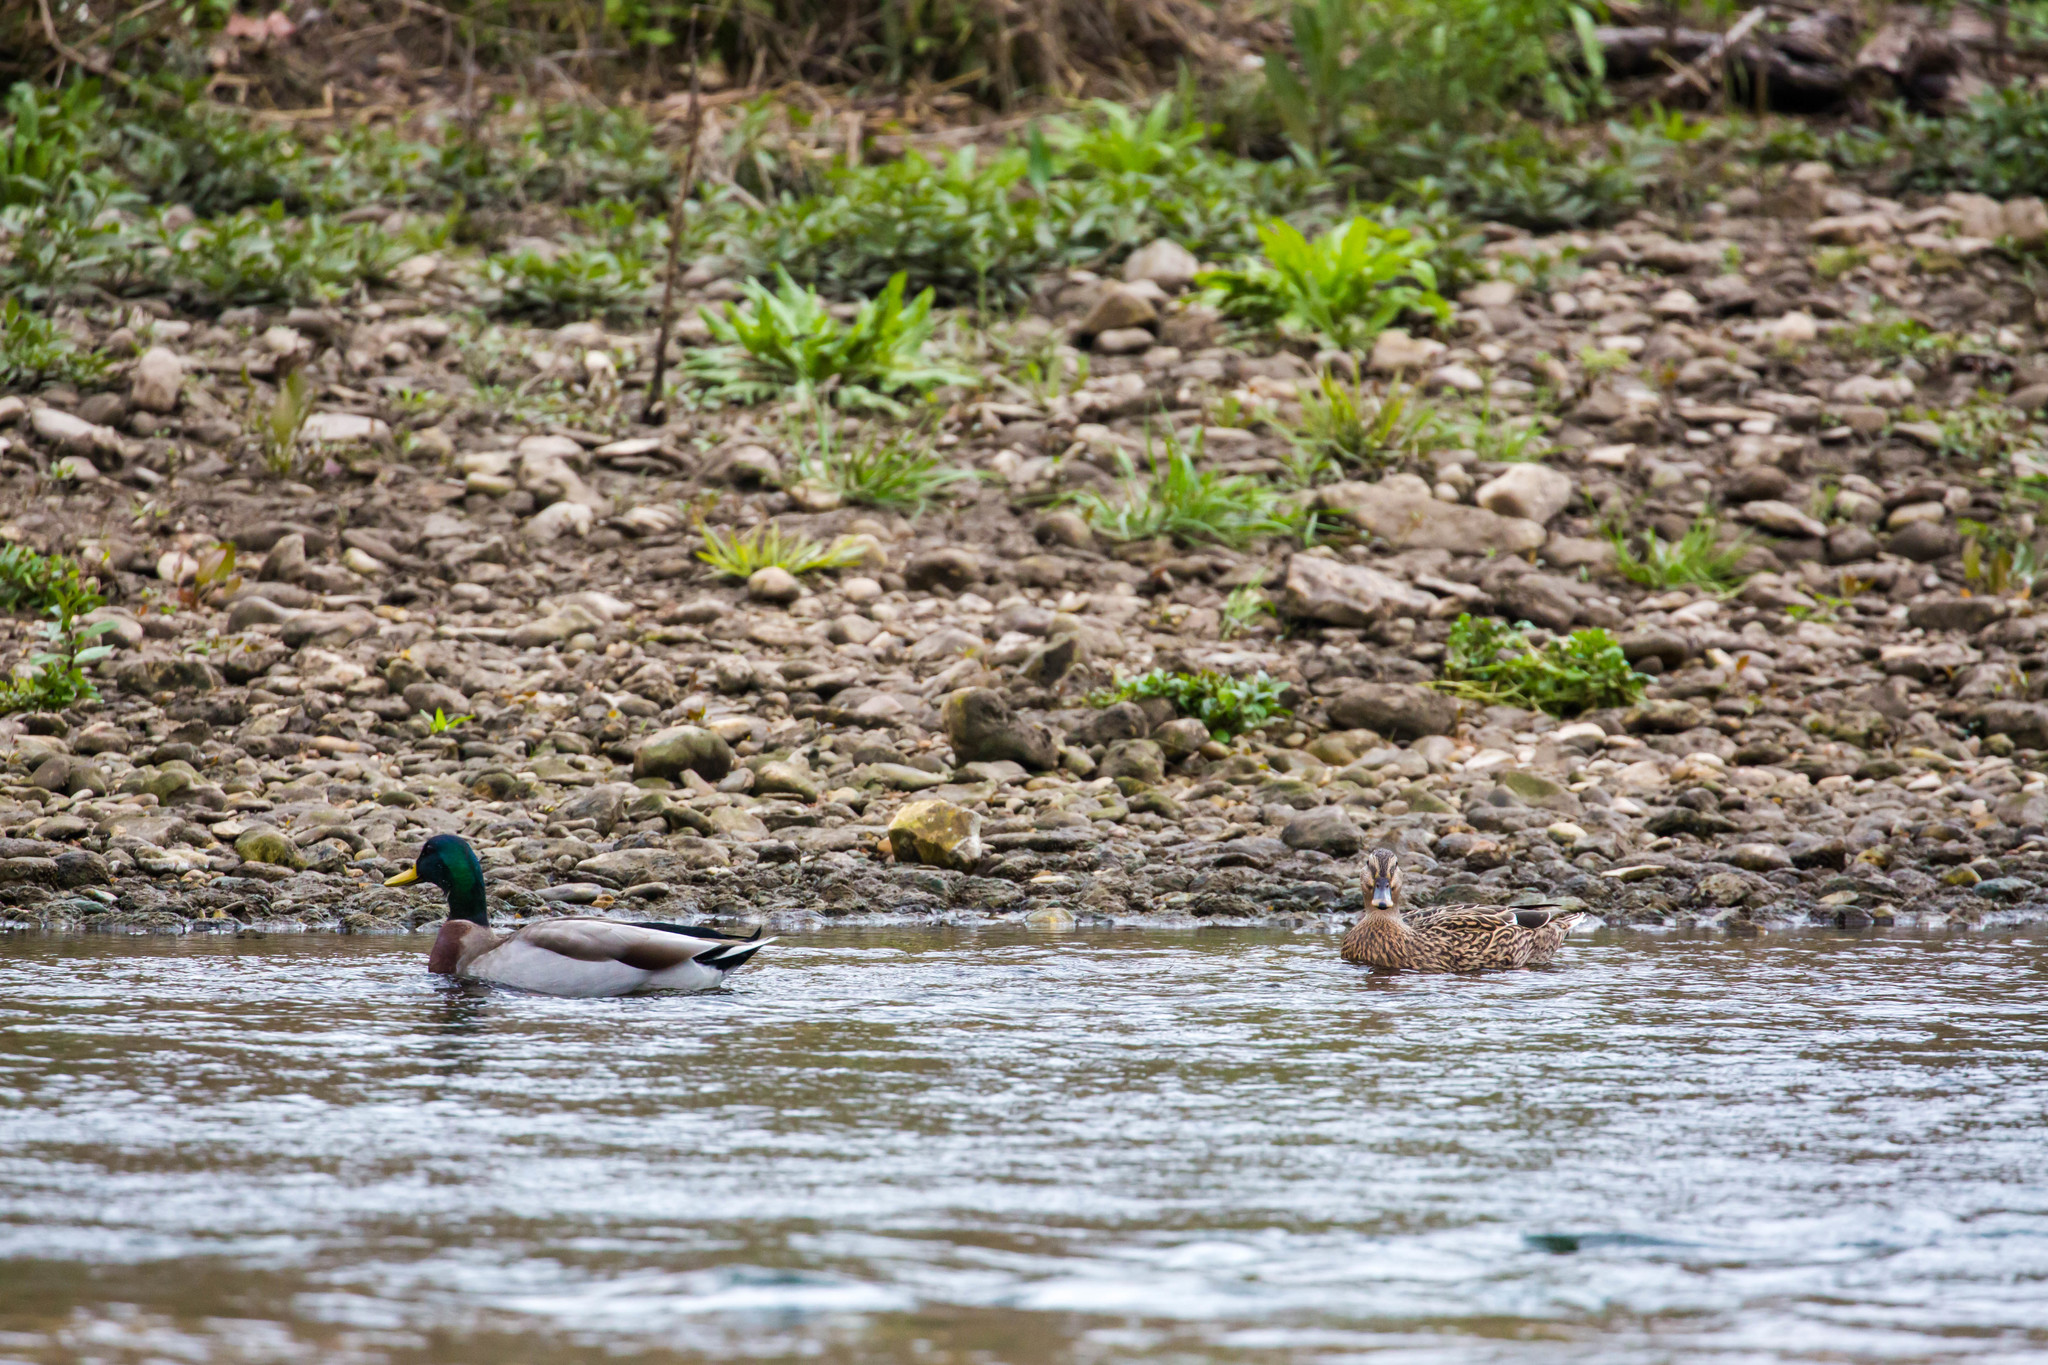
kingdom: Animalia
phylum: Chordata
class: Aves
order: Anseriformes
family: Anatidae
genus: Anas
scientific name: Anas platyrhynchos
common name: Mallard
